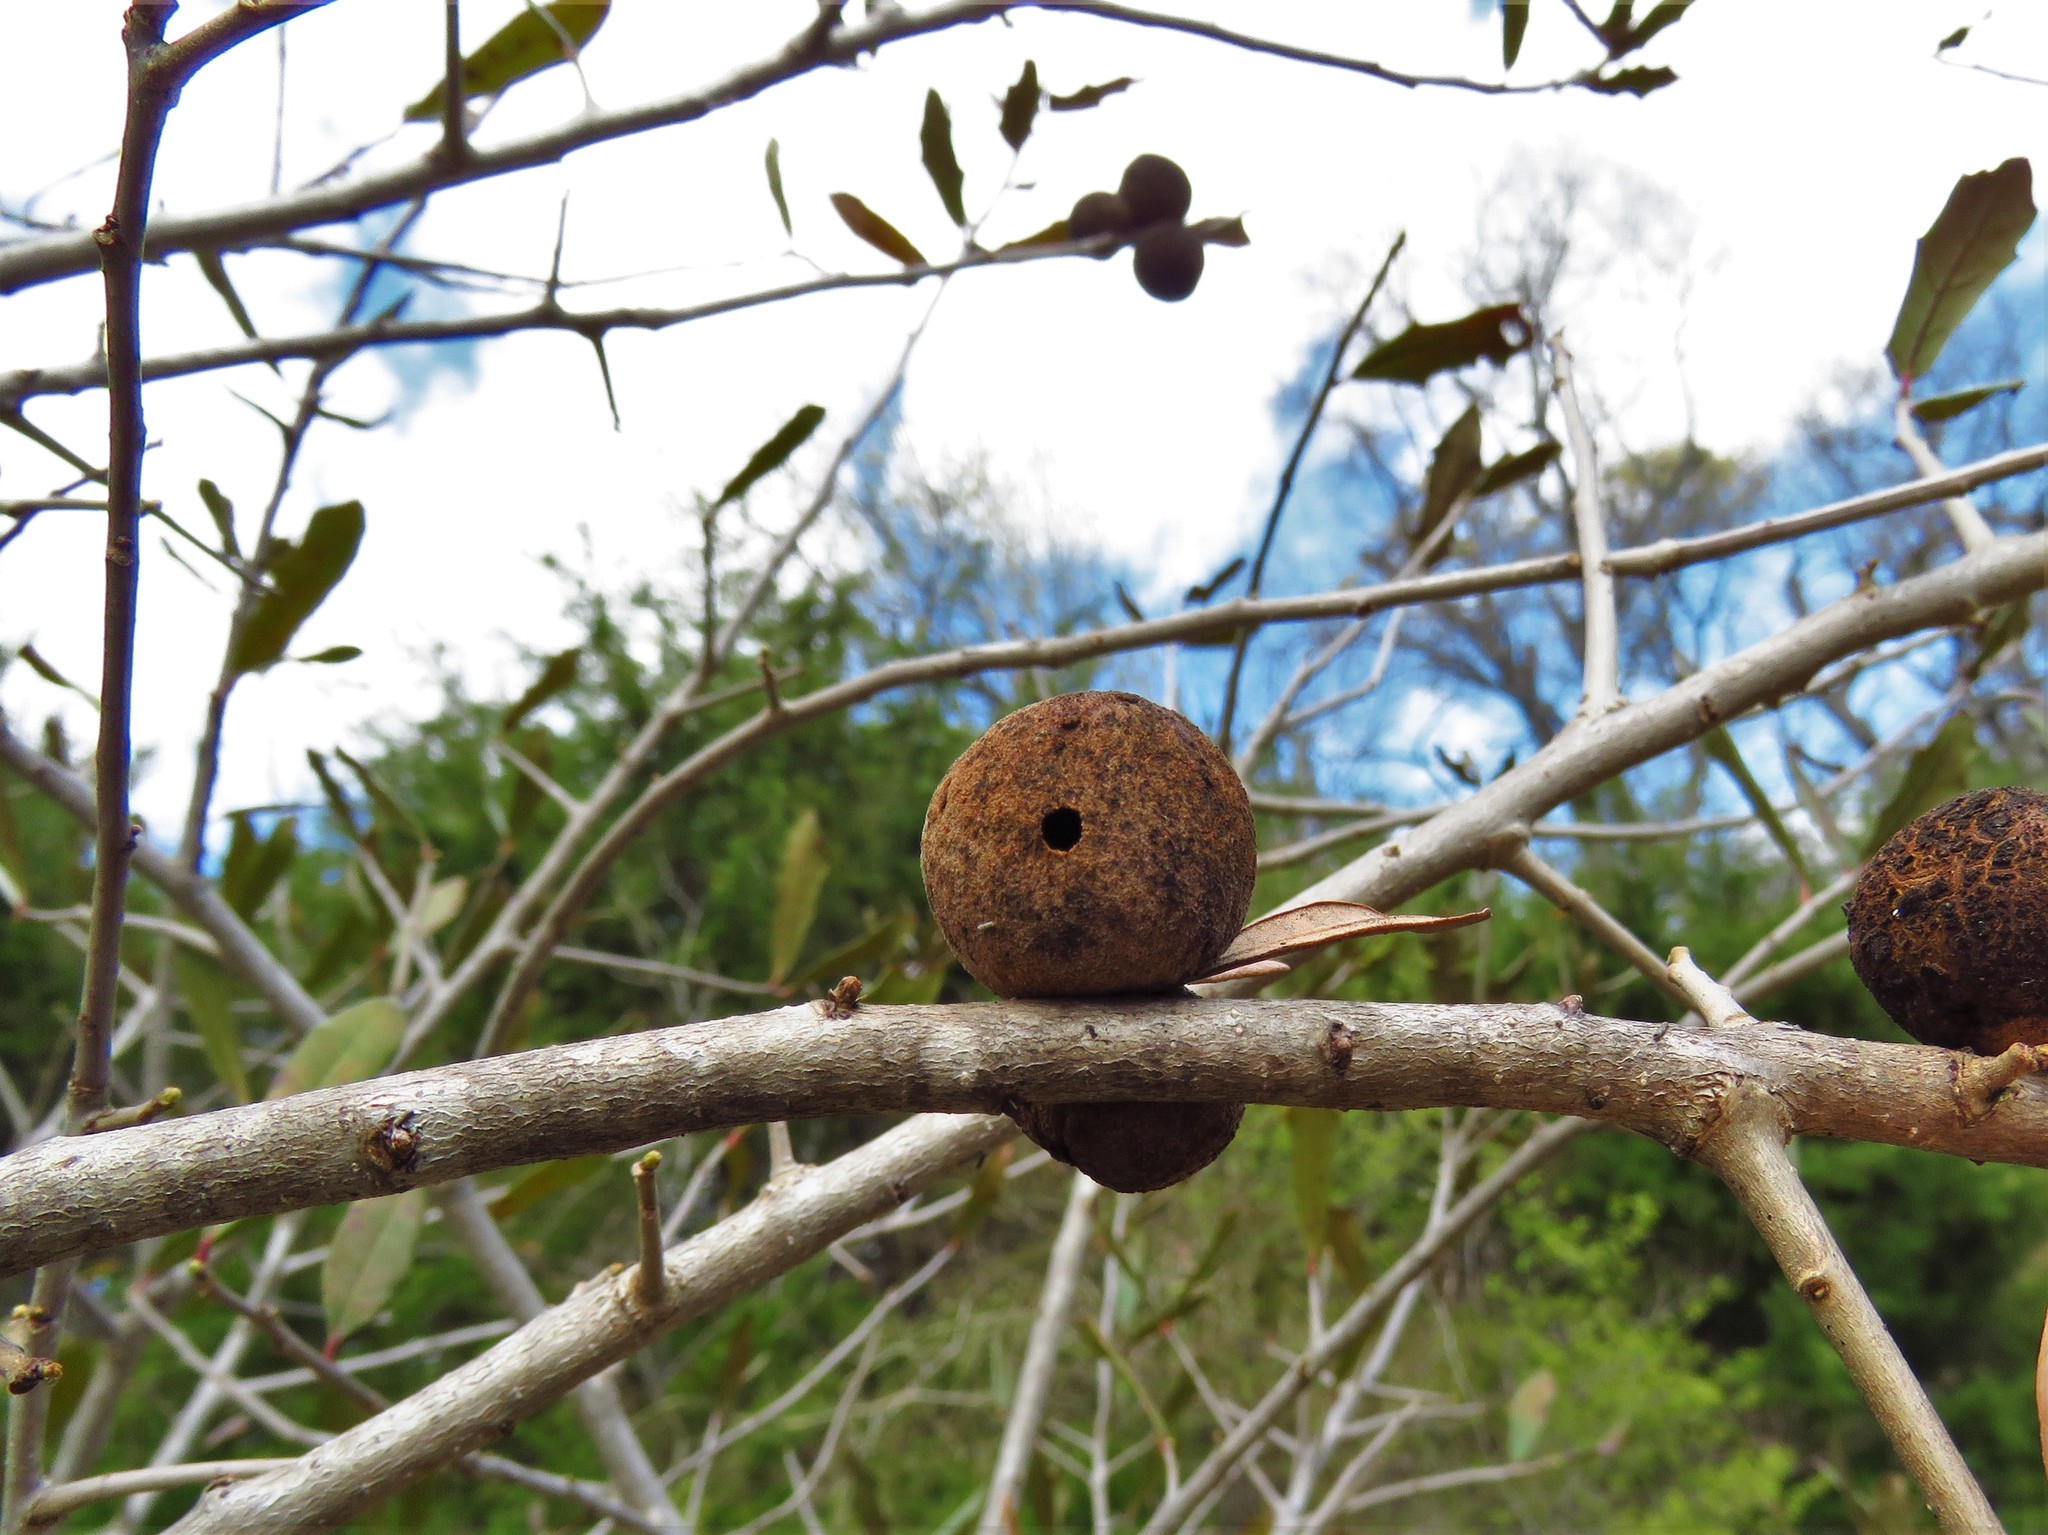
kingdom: Animalia
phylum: Arthropoda
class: Insecta
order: Hymenoptera
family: Cynipidae
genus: Disholcaspis
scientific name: Disholcaspis
